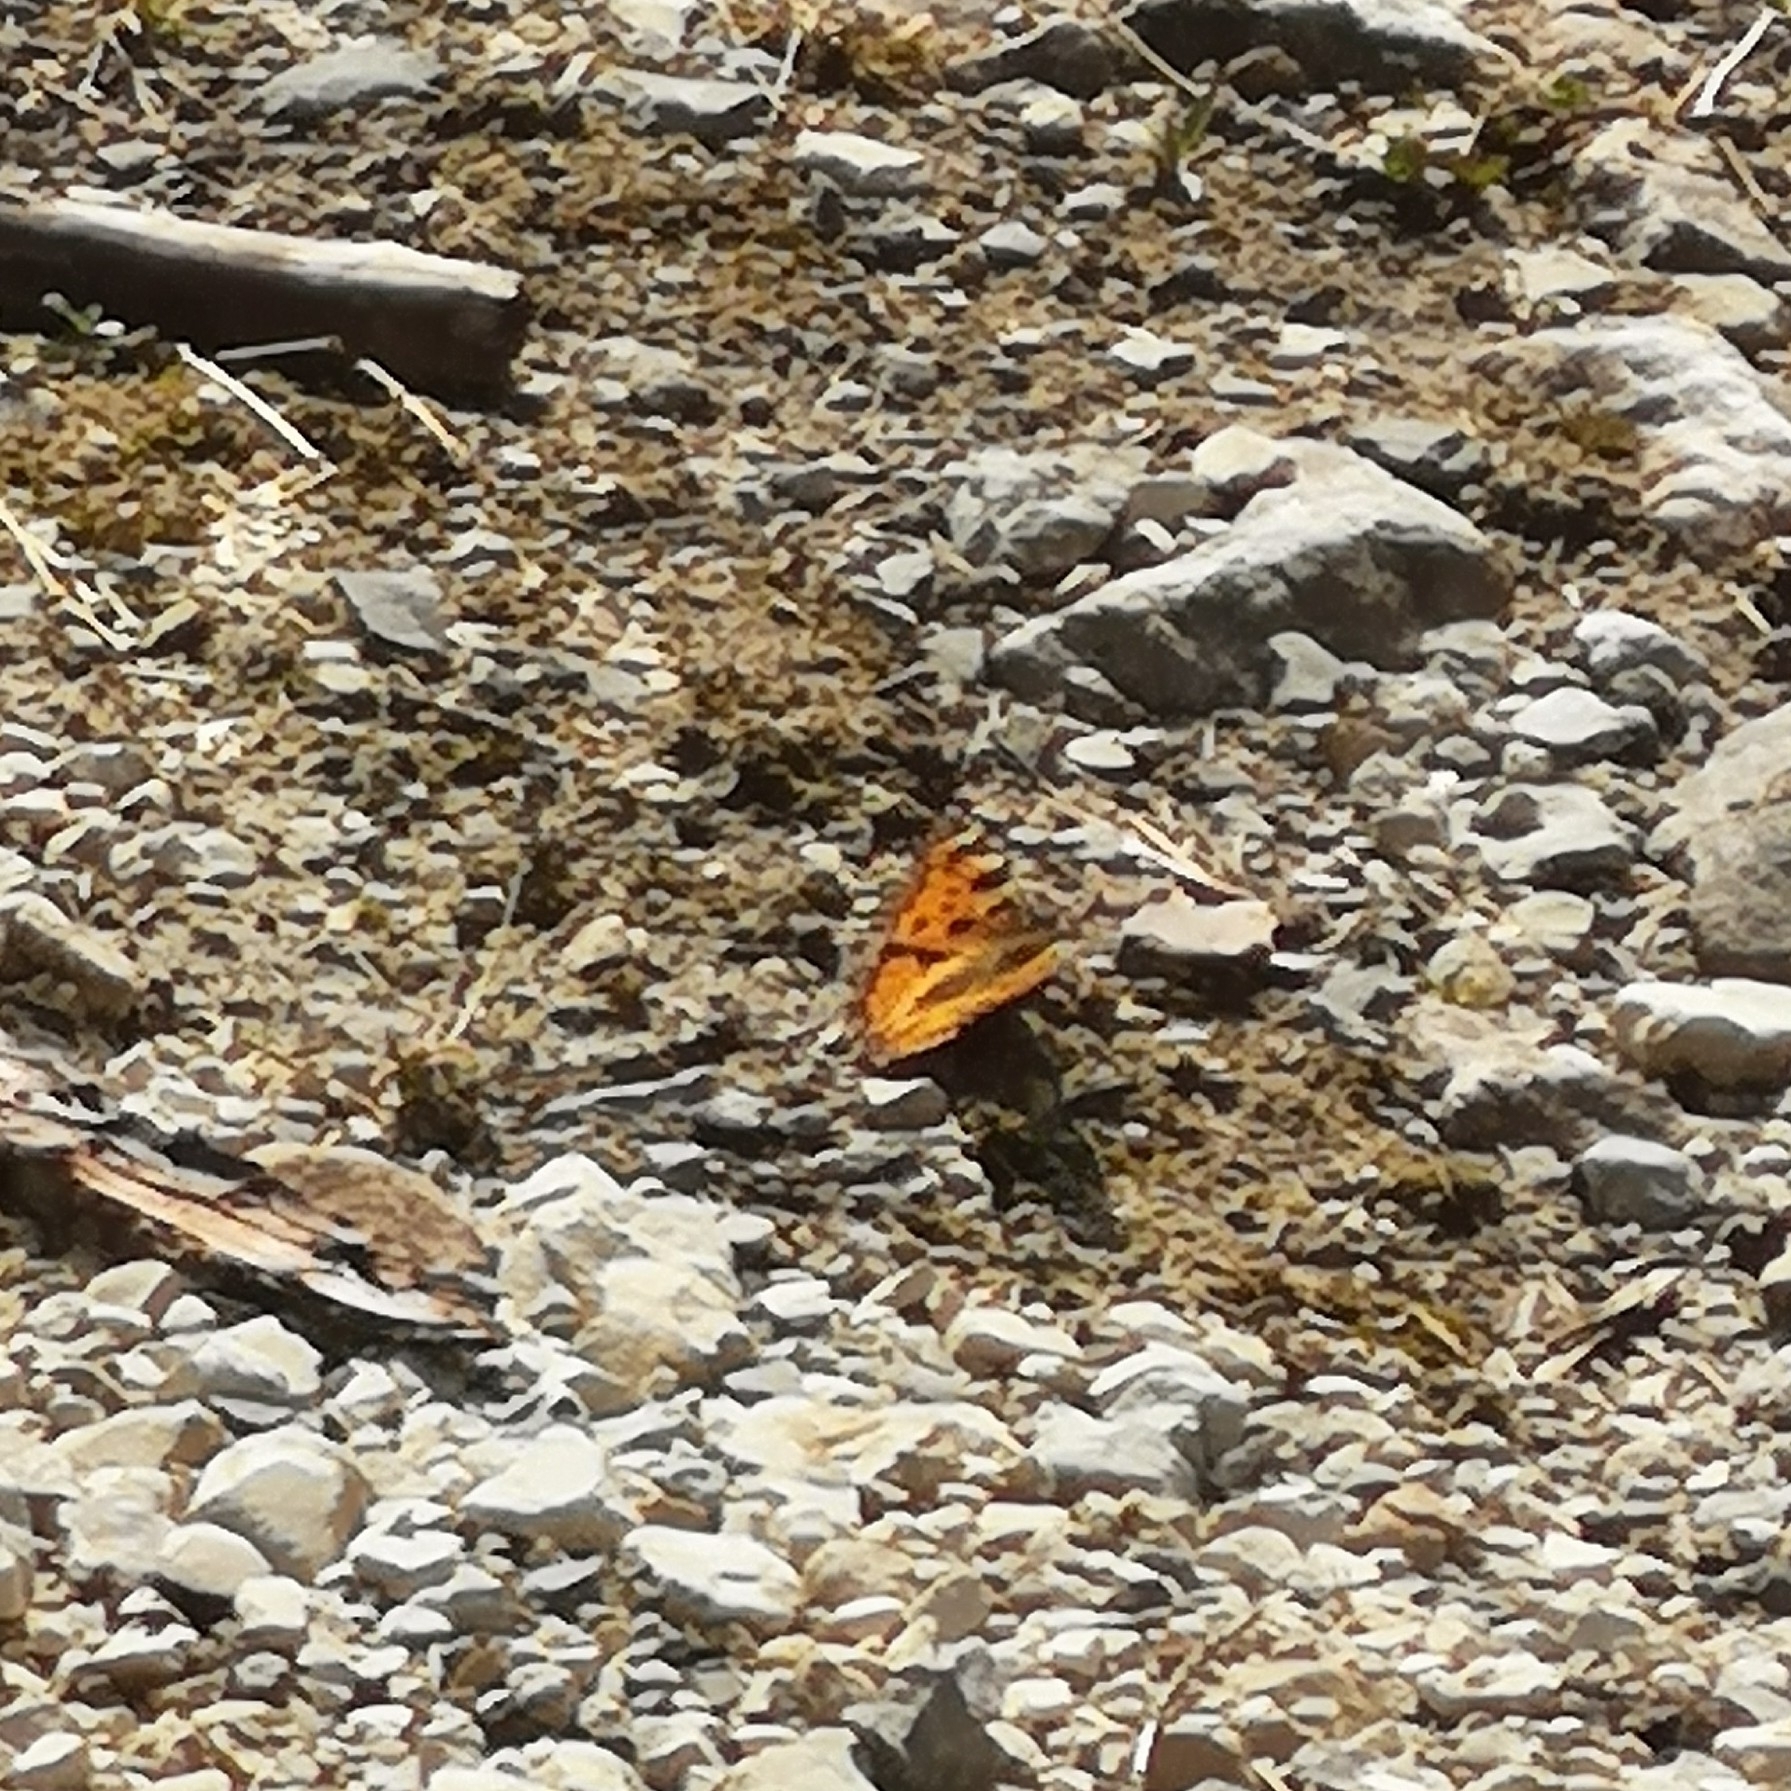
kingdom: Animalia
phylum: Arthropoda
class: Insecta
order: Lepidoptera
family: Nymphalidae
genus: Nymphalis
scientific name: Nymphalis polychloros
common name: Large tortoiseshell
